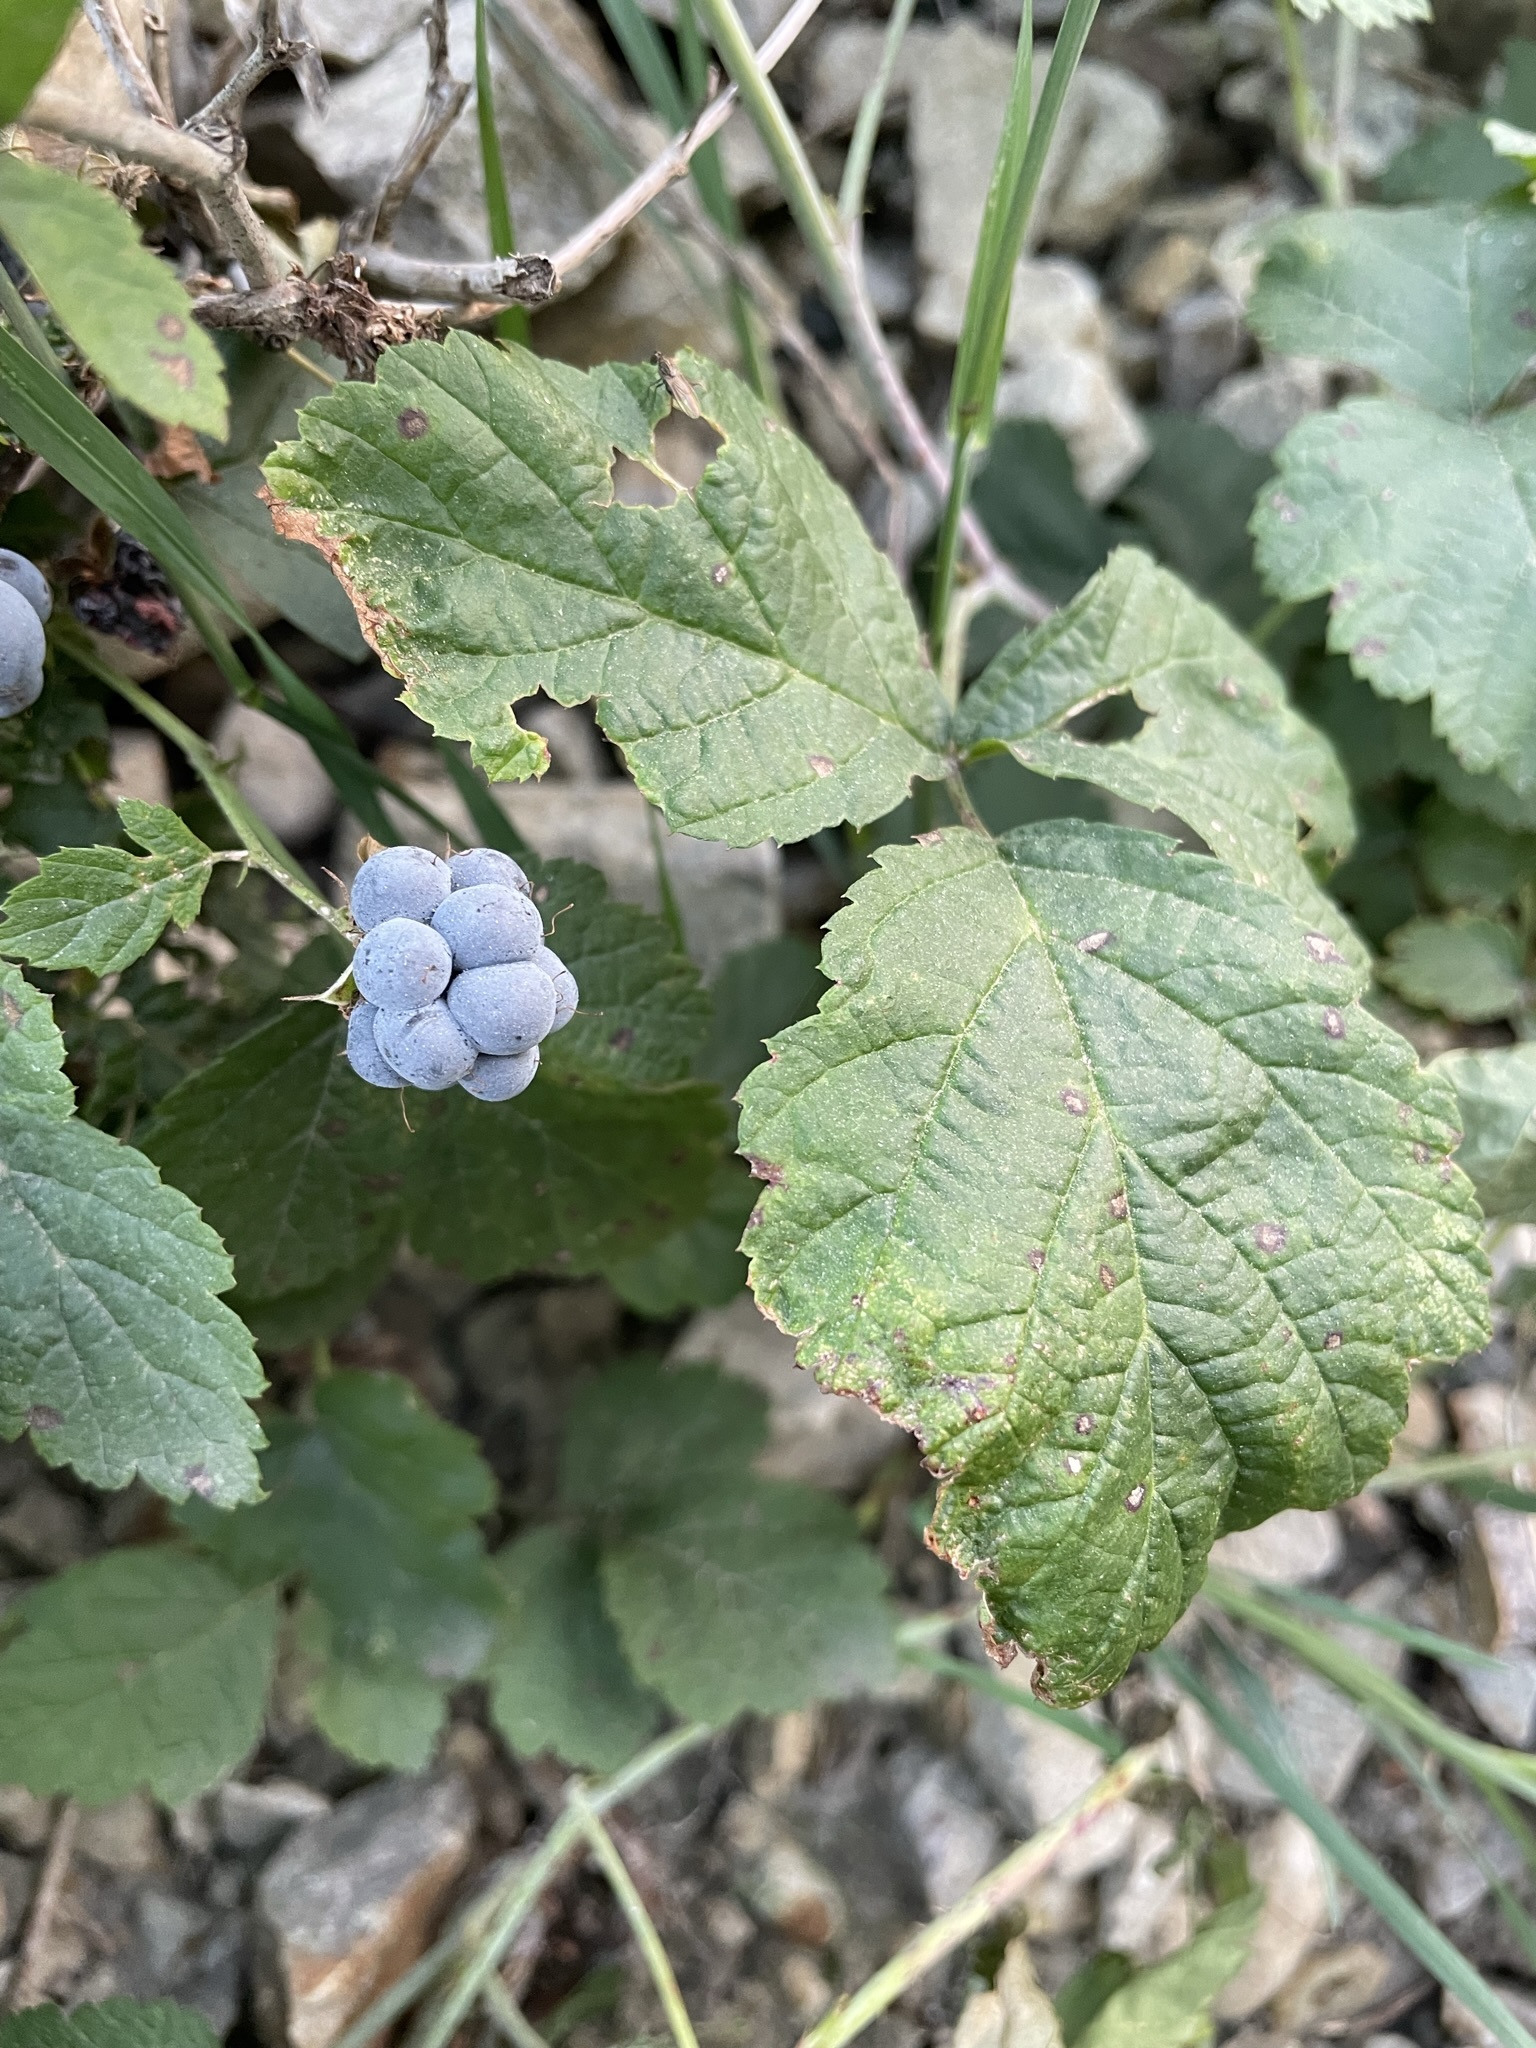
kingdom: Plantae
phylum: Tracheophyta
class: Magnoliopsida
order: Rosales
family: Rosaceae
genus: Rubus
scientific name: Rubus caesius
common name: Dewberry
